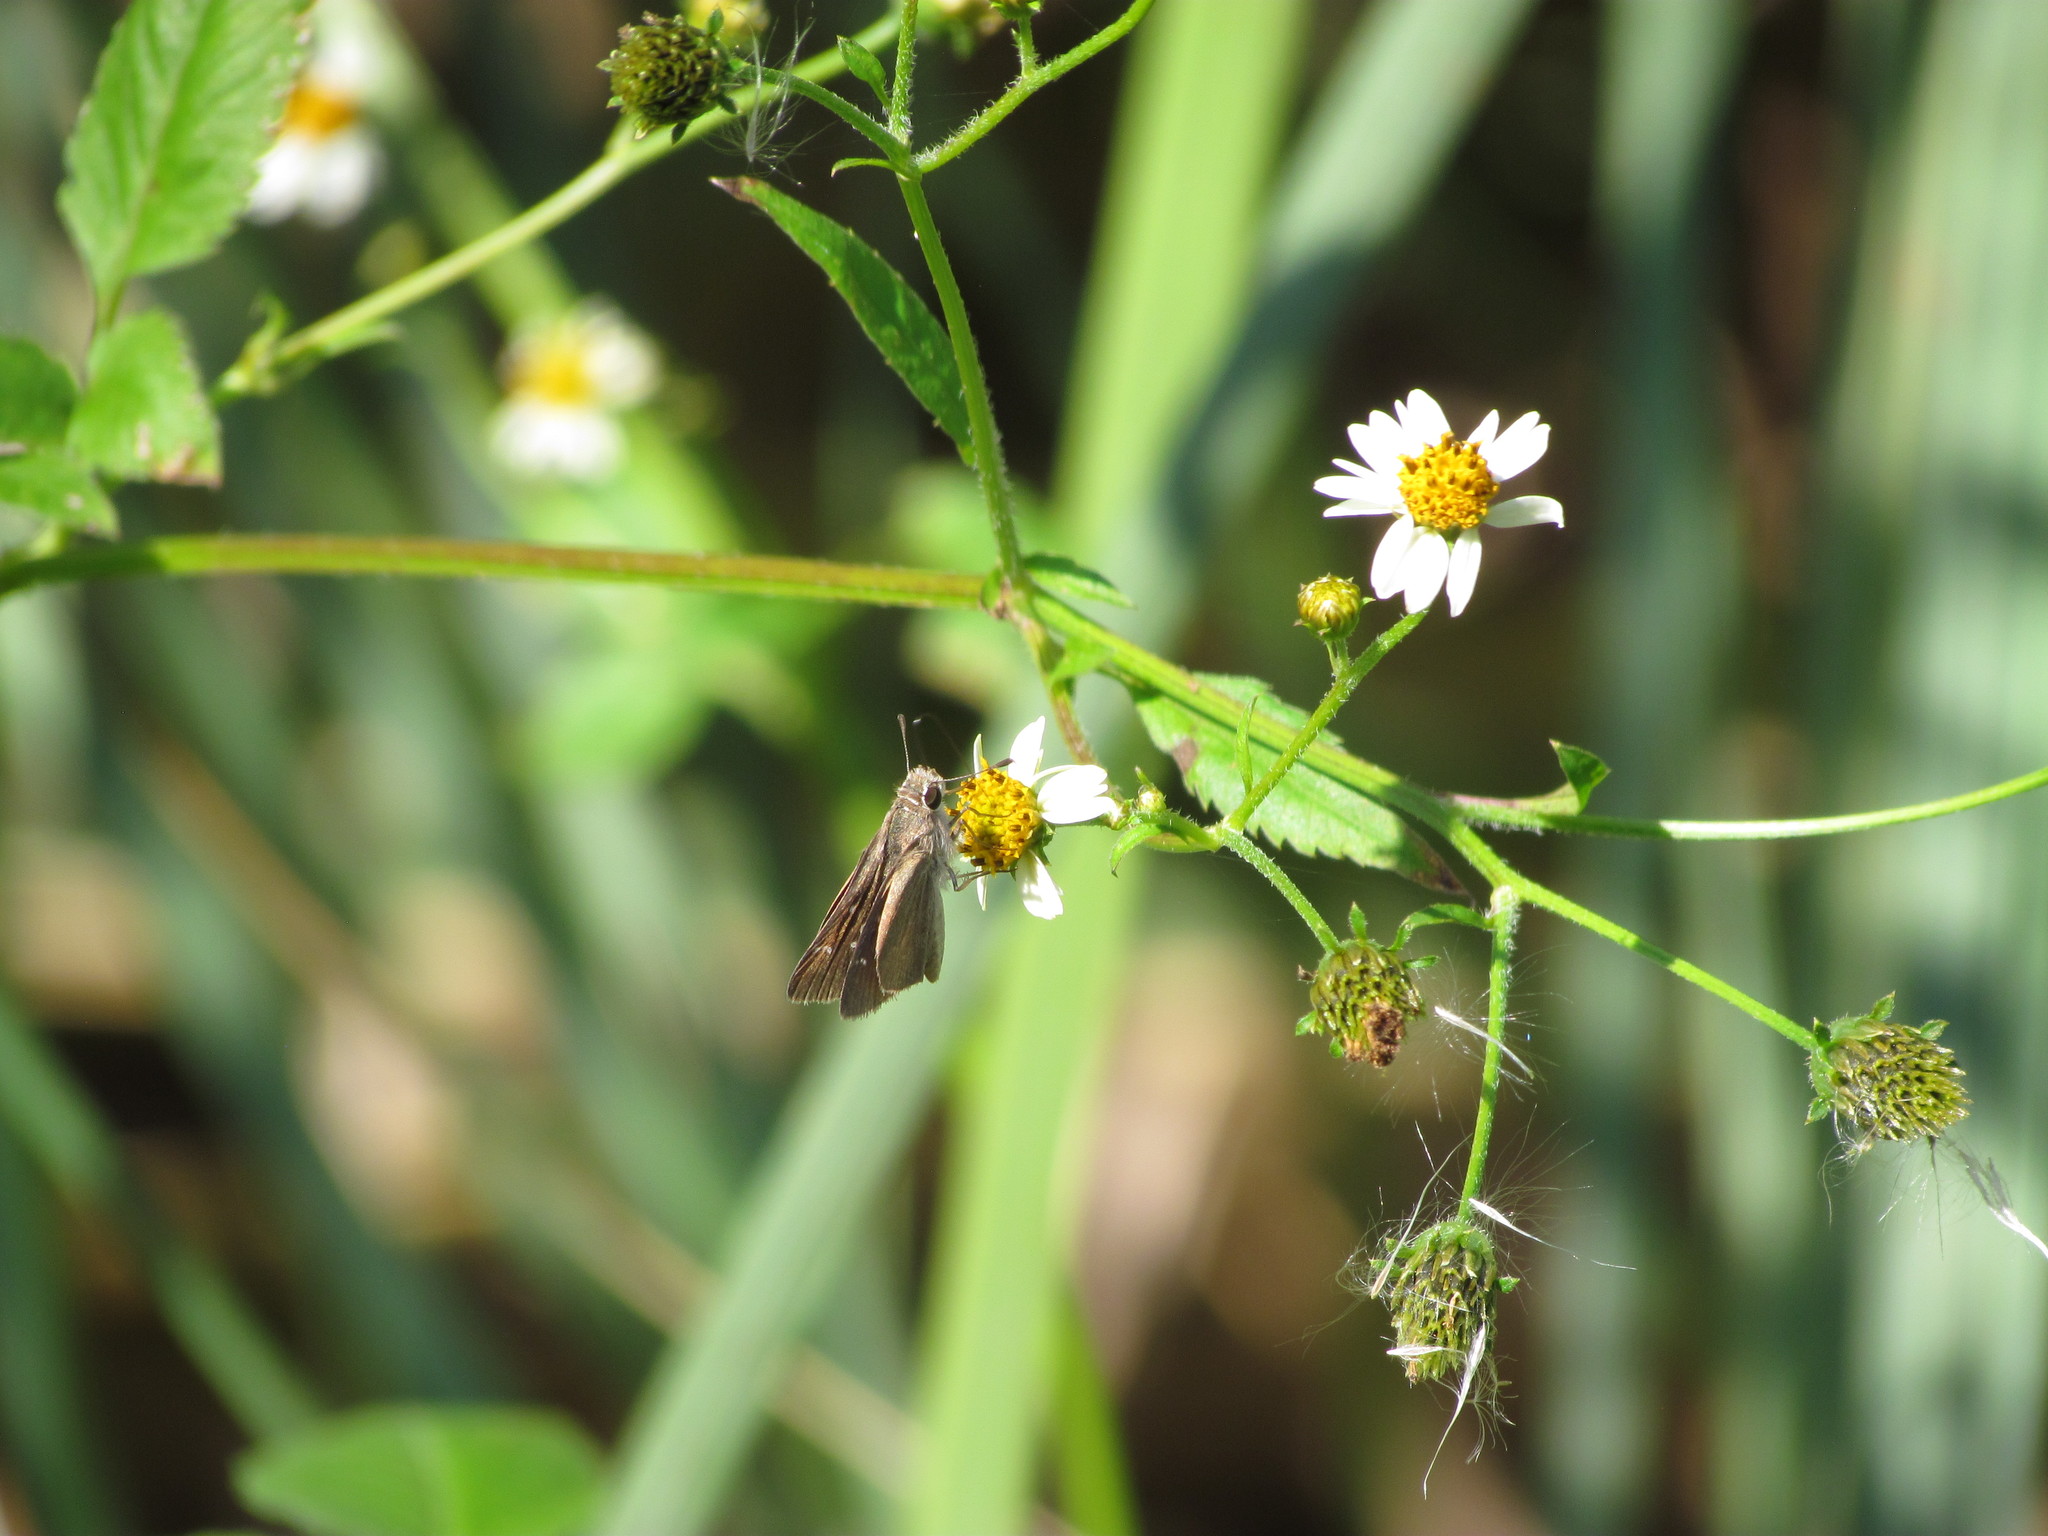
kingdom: Animalia
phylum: Arthropoda
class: Insecta
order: Lepidoptera
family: Hesperiidae
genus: Lerodea
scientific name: Lerodea eufala
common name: Eufala skipper
